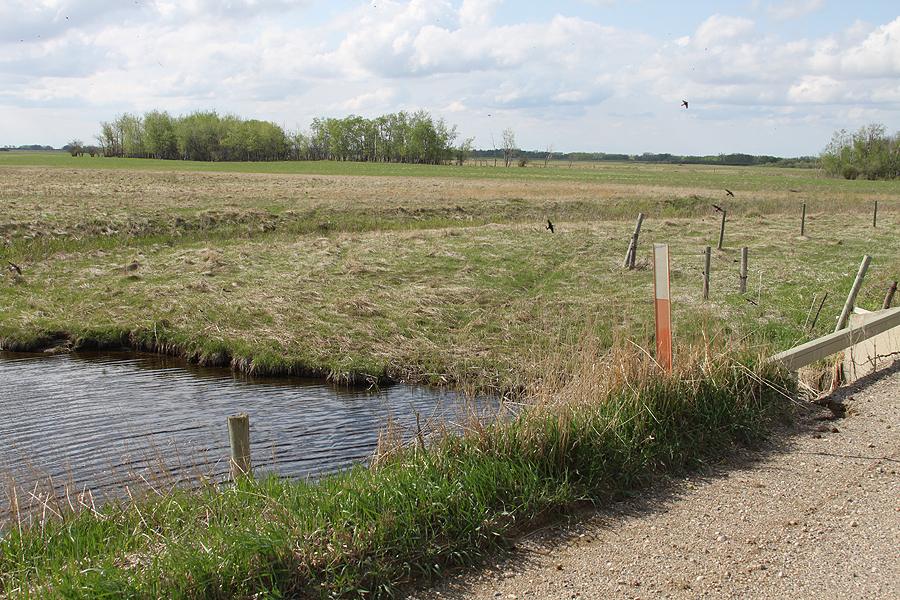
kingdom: Animalia
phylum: Chordata
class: Aves
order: Passeriformes
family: Hirundinidae
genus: Petrochelidon
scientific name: Petrochelidon pyrrhonota
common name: American cliff swallow
